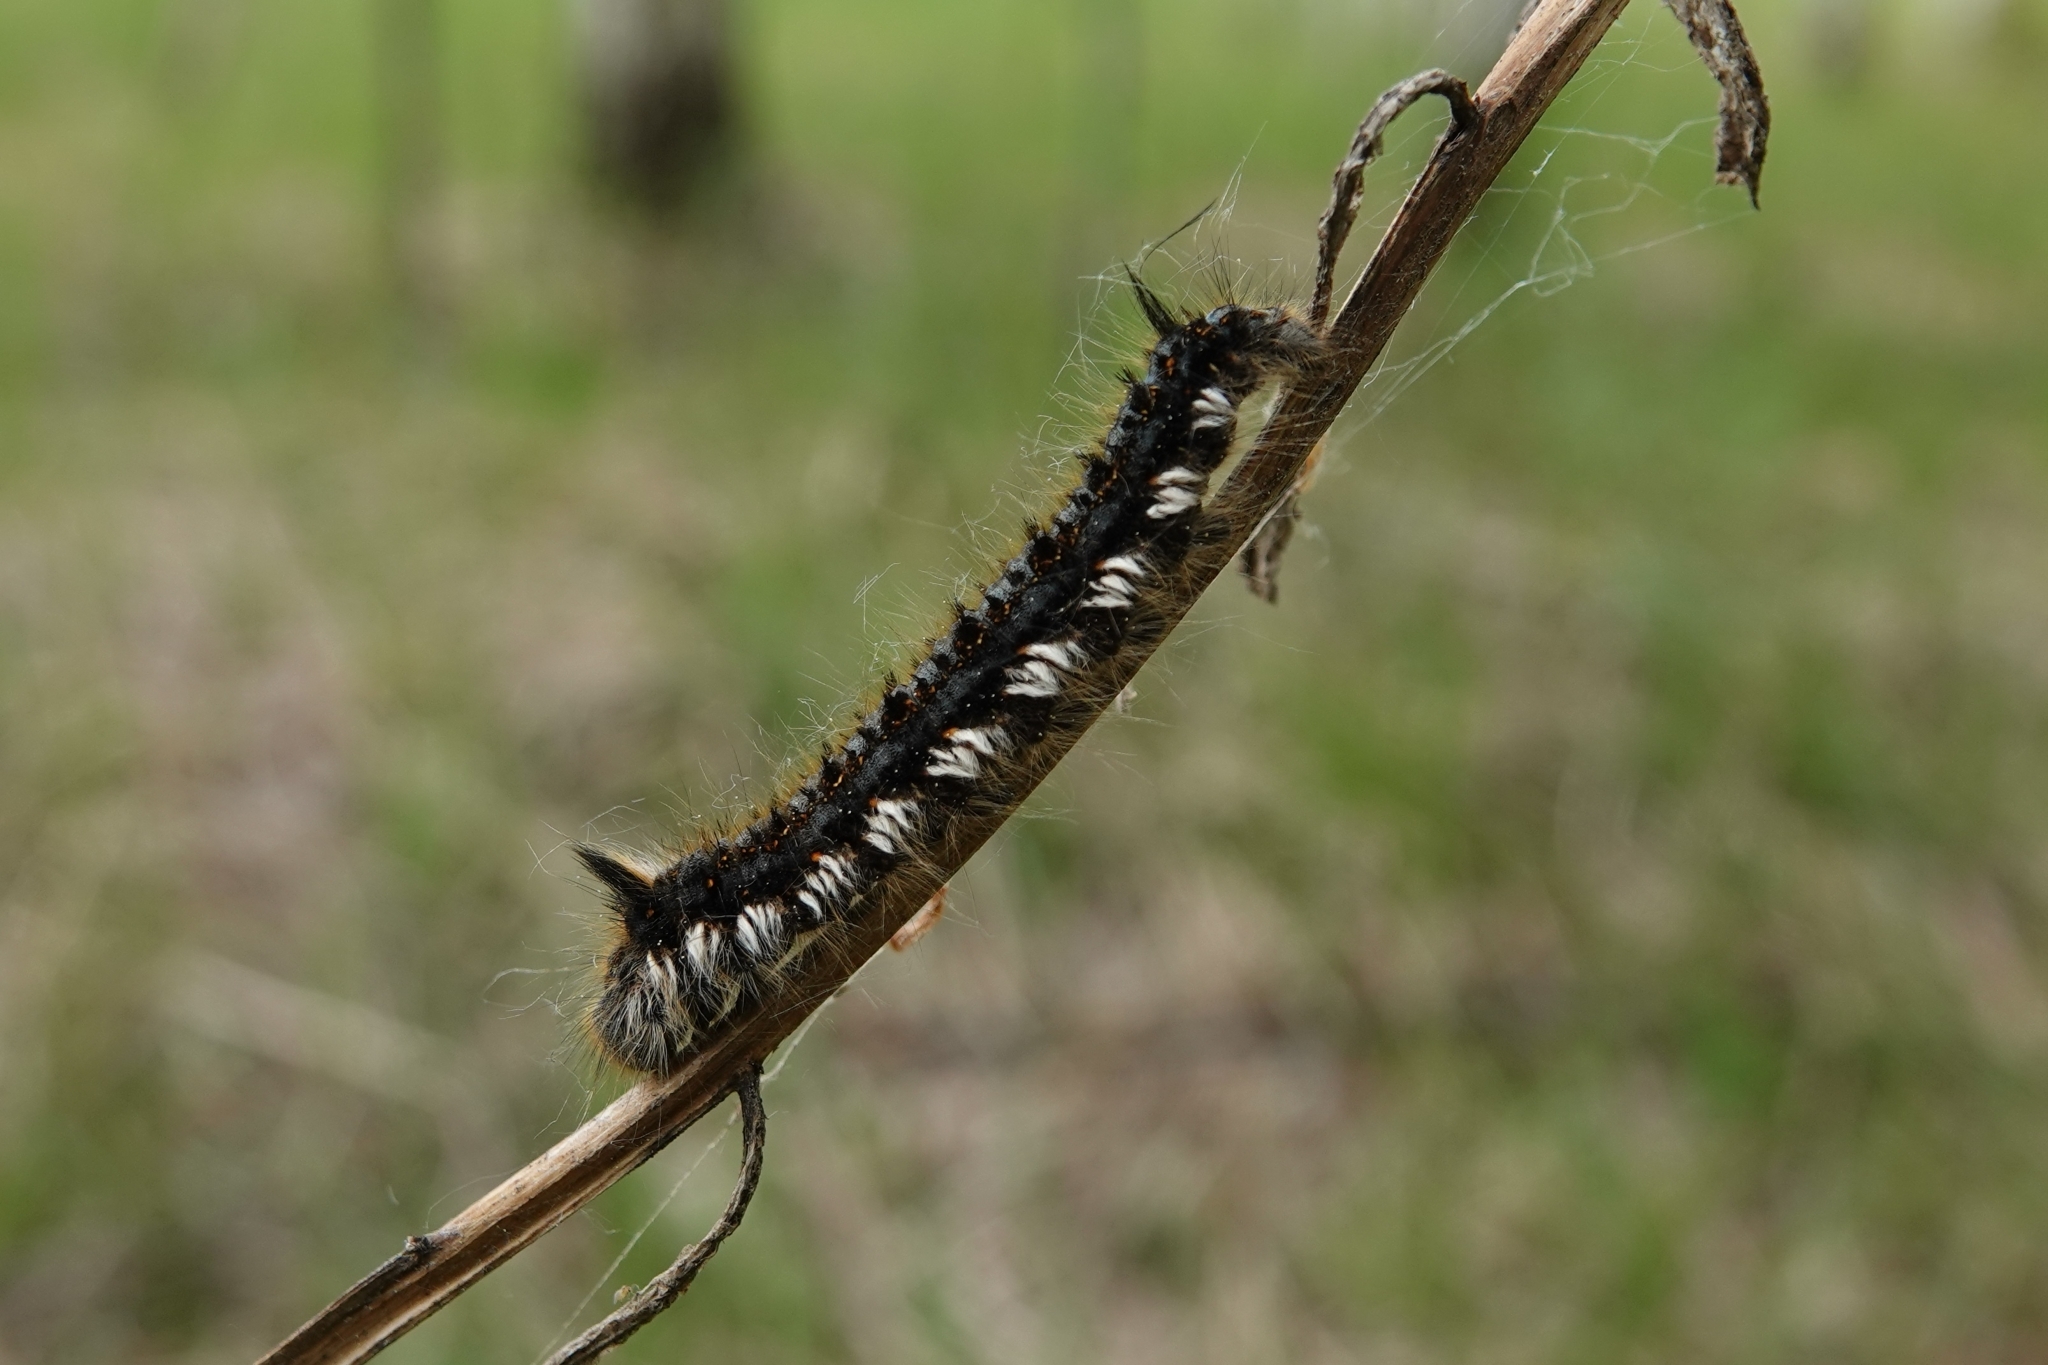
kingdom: Animalia
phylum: Arthropoda
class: Insecta
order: Lepidoptera
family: Lasiocampidae
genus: Euthrix
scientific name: Euthrix potatoria
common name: Drinker
